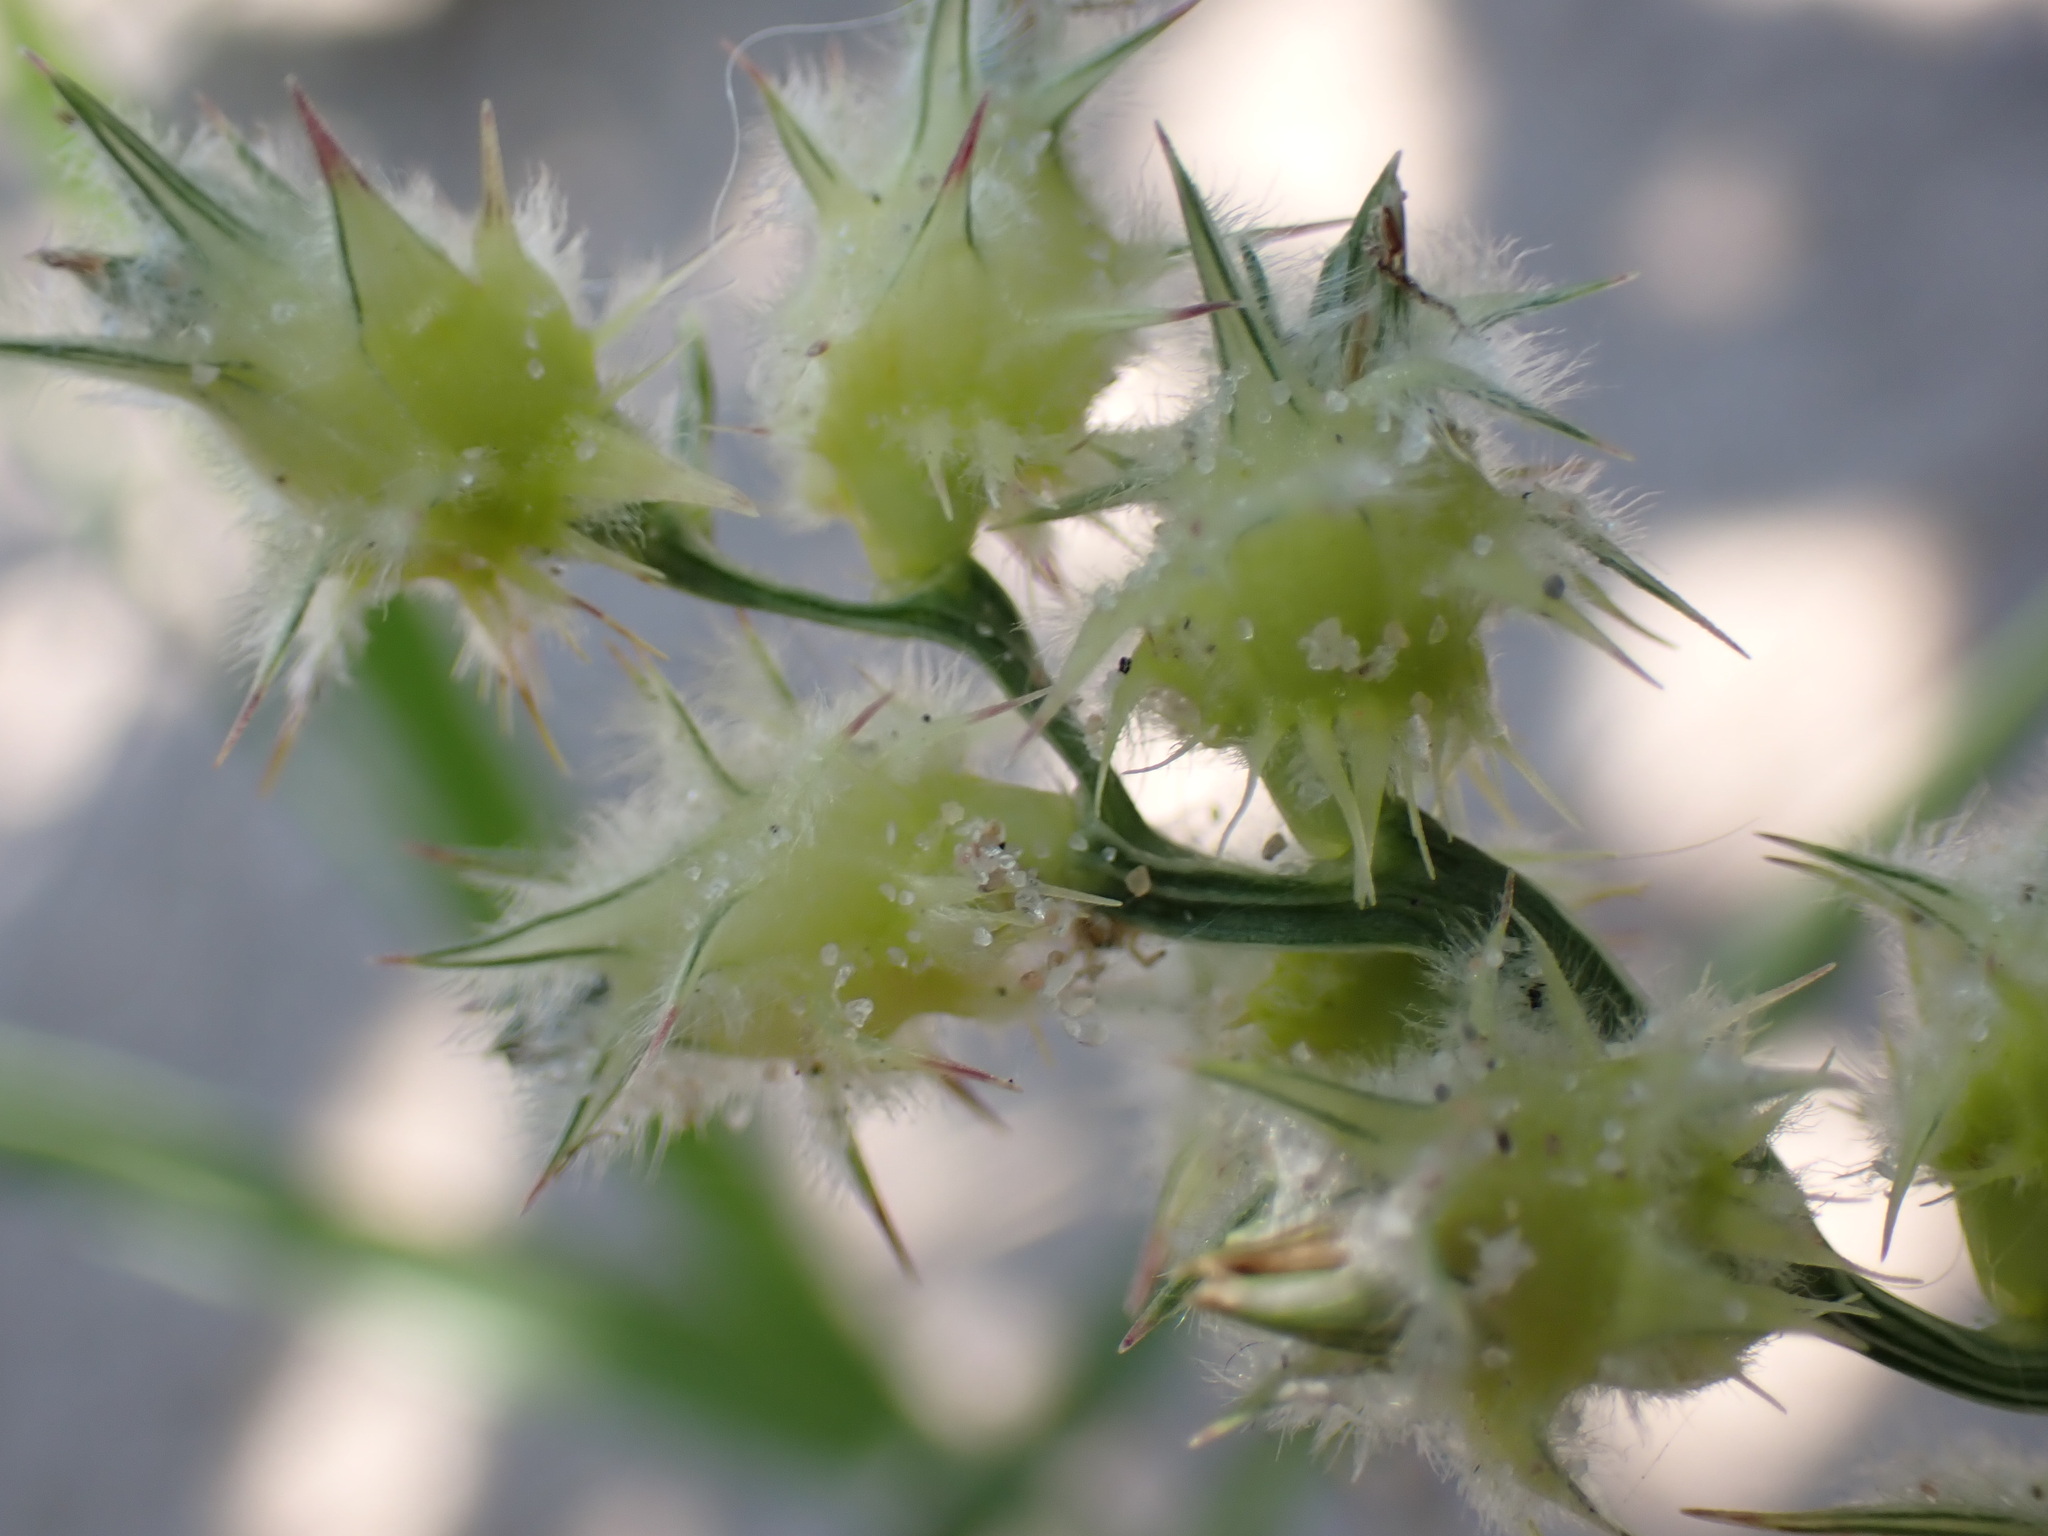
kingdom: Plantae
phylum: Tracheophyta
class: Liliopsida
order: Poales
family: Poaceae
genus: Cenchrus
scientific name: Cenchrus longispinus
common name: Mat sandbur
